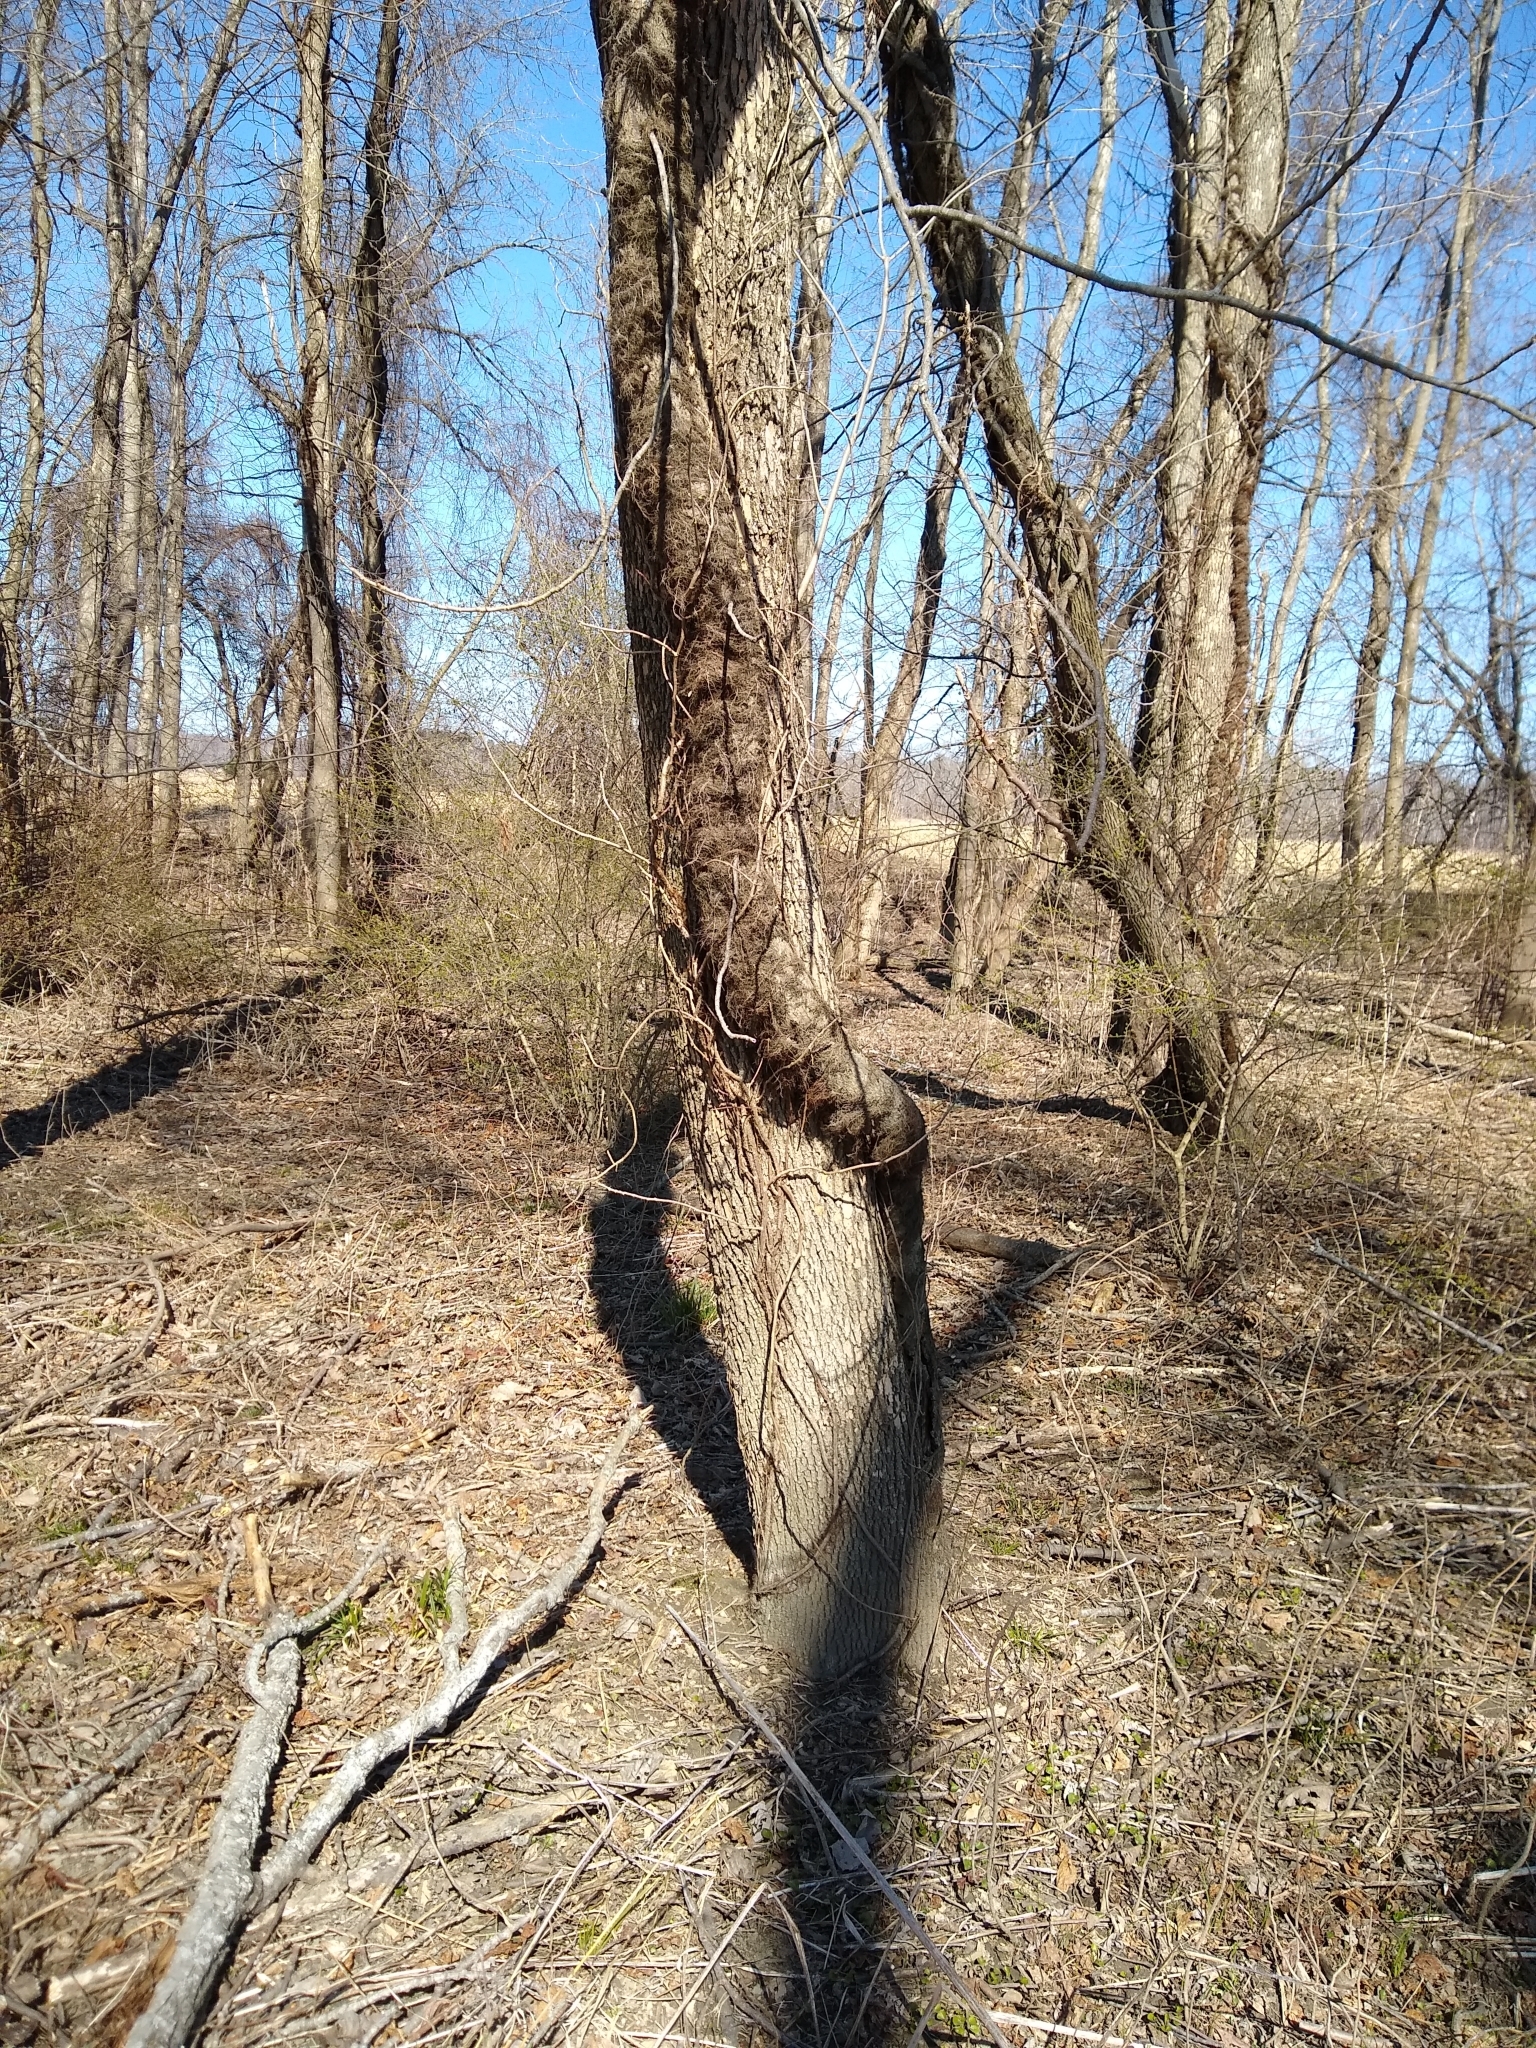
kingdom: Plantae
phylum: Tracheophyta
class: Magnoliopsida
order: Sapindales
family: Anacardiaceae
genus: Toxicodendron
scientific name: Toxicodendron radicans
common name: Poison ivy
